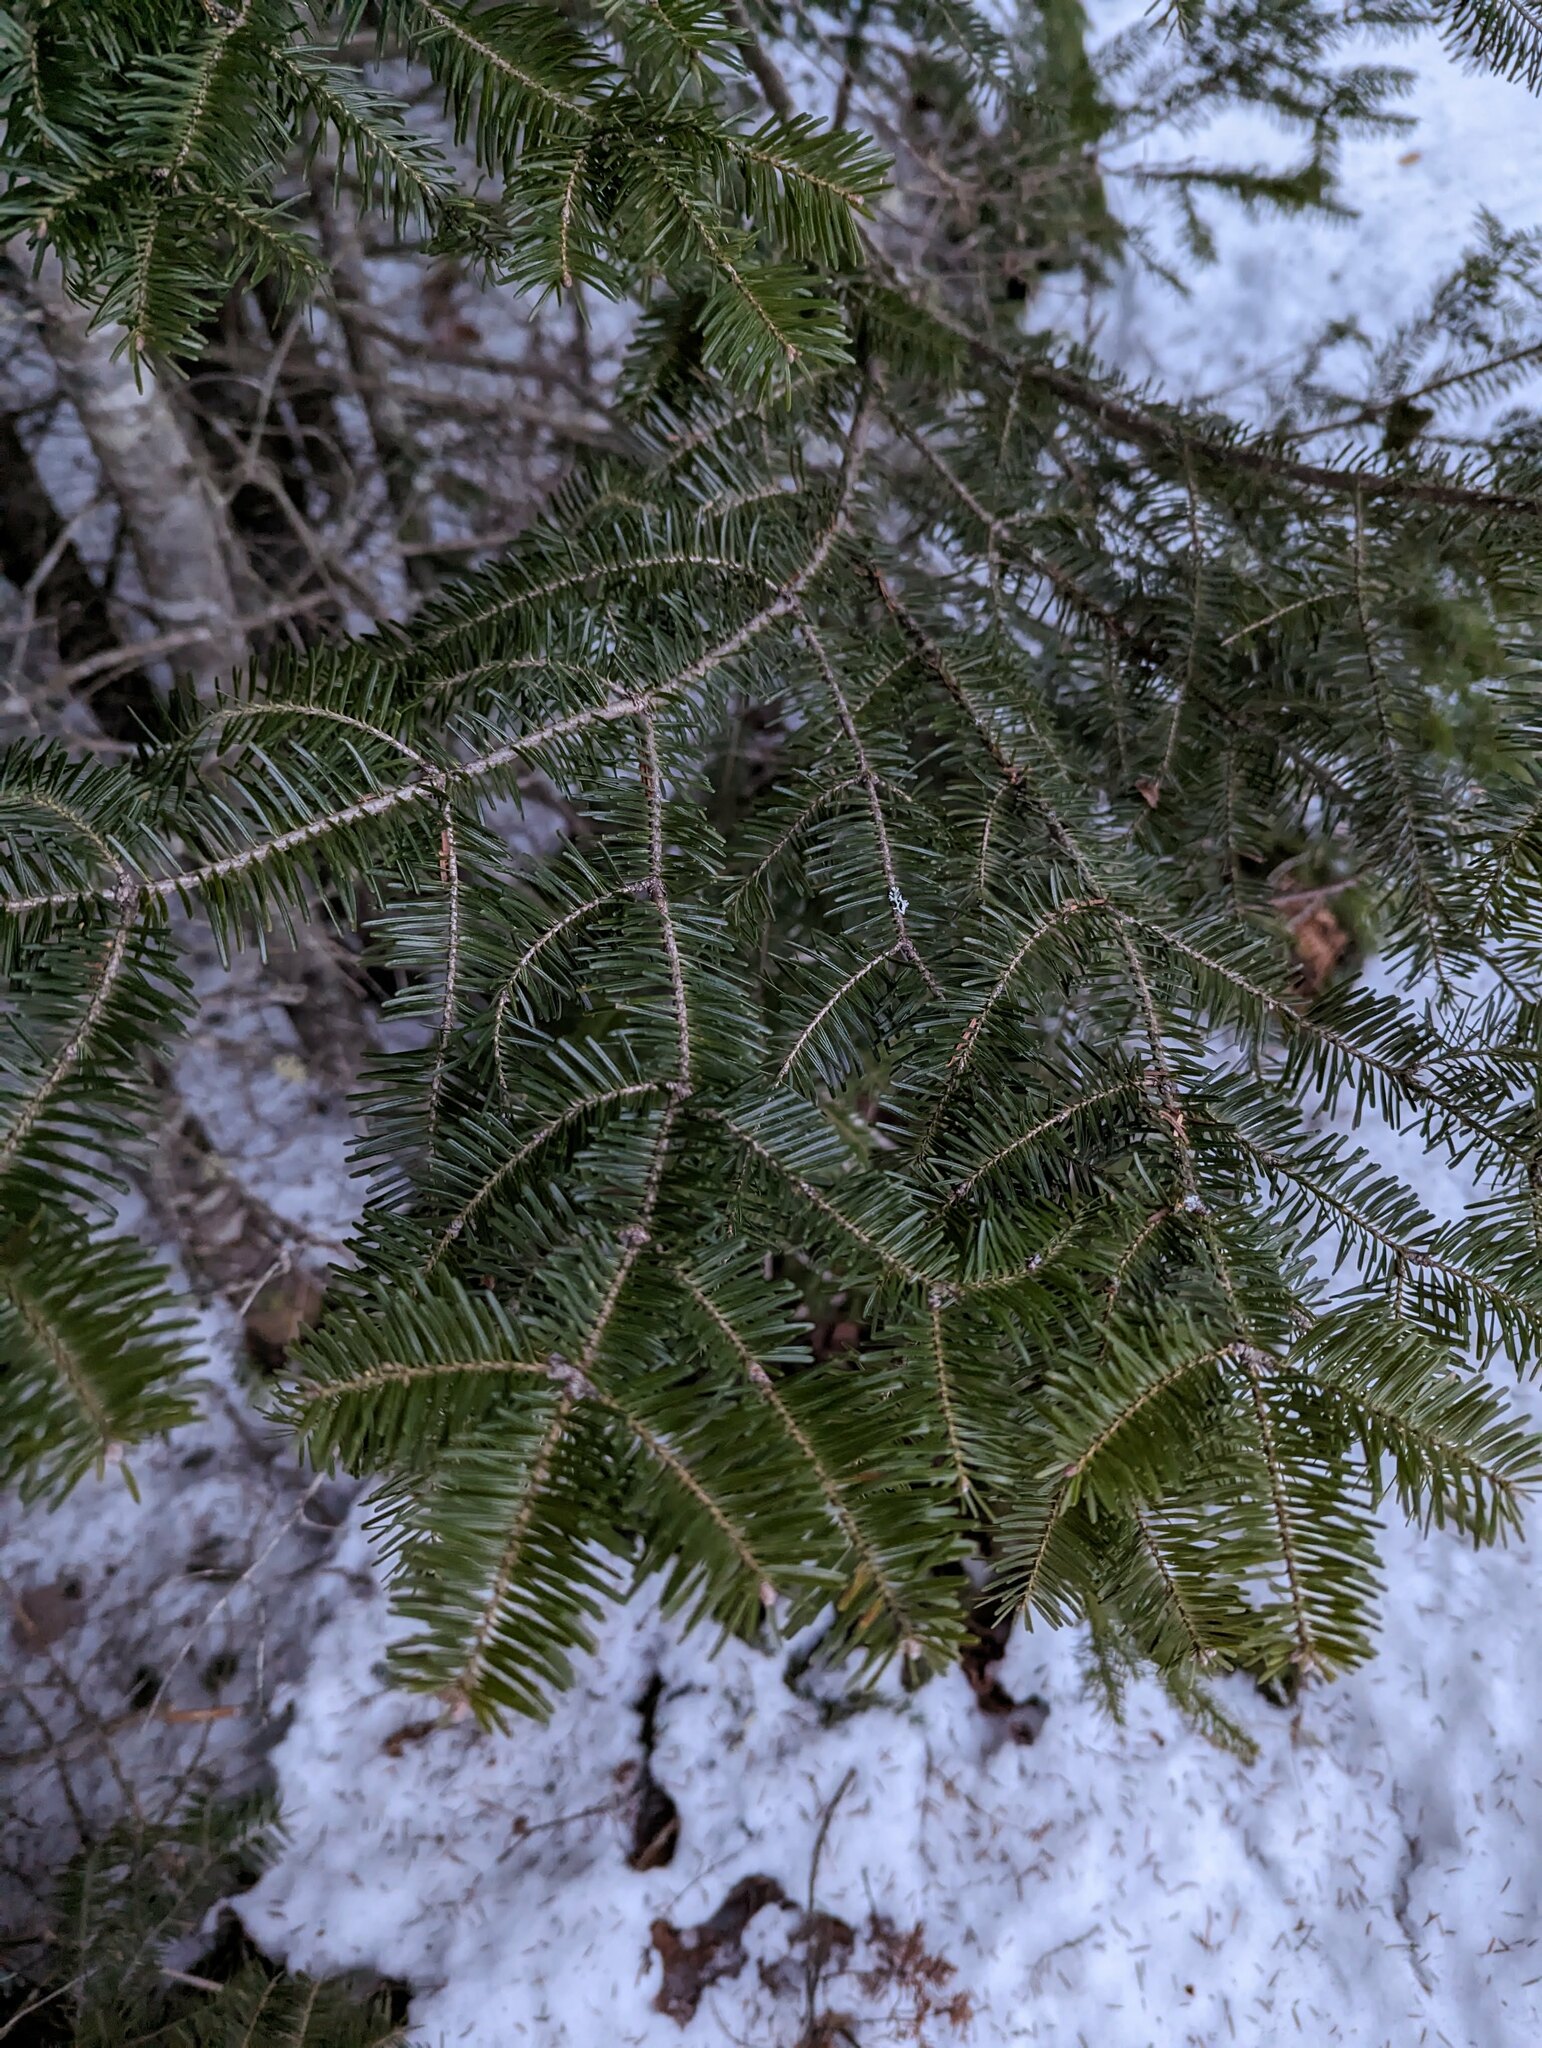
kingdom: Plantae
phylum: Tracheophyta
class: Pinopsida
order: Pinales
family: Pinaceae
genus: Abies
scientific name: Abies balsamea
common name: Balsam fir
